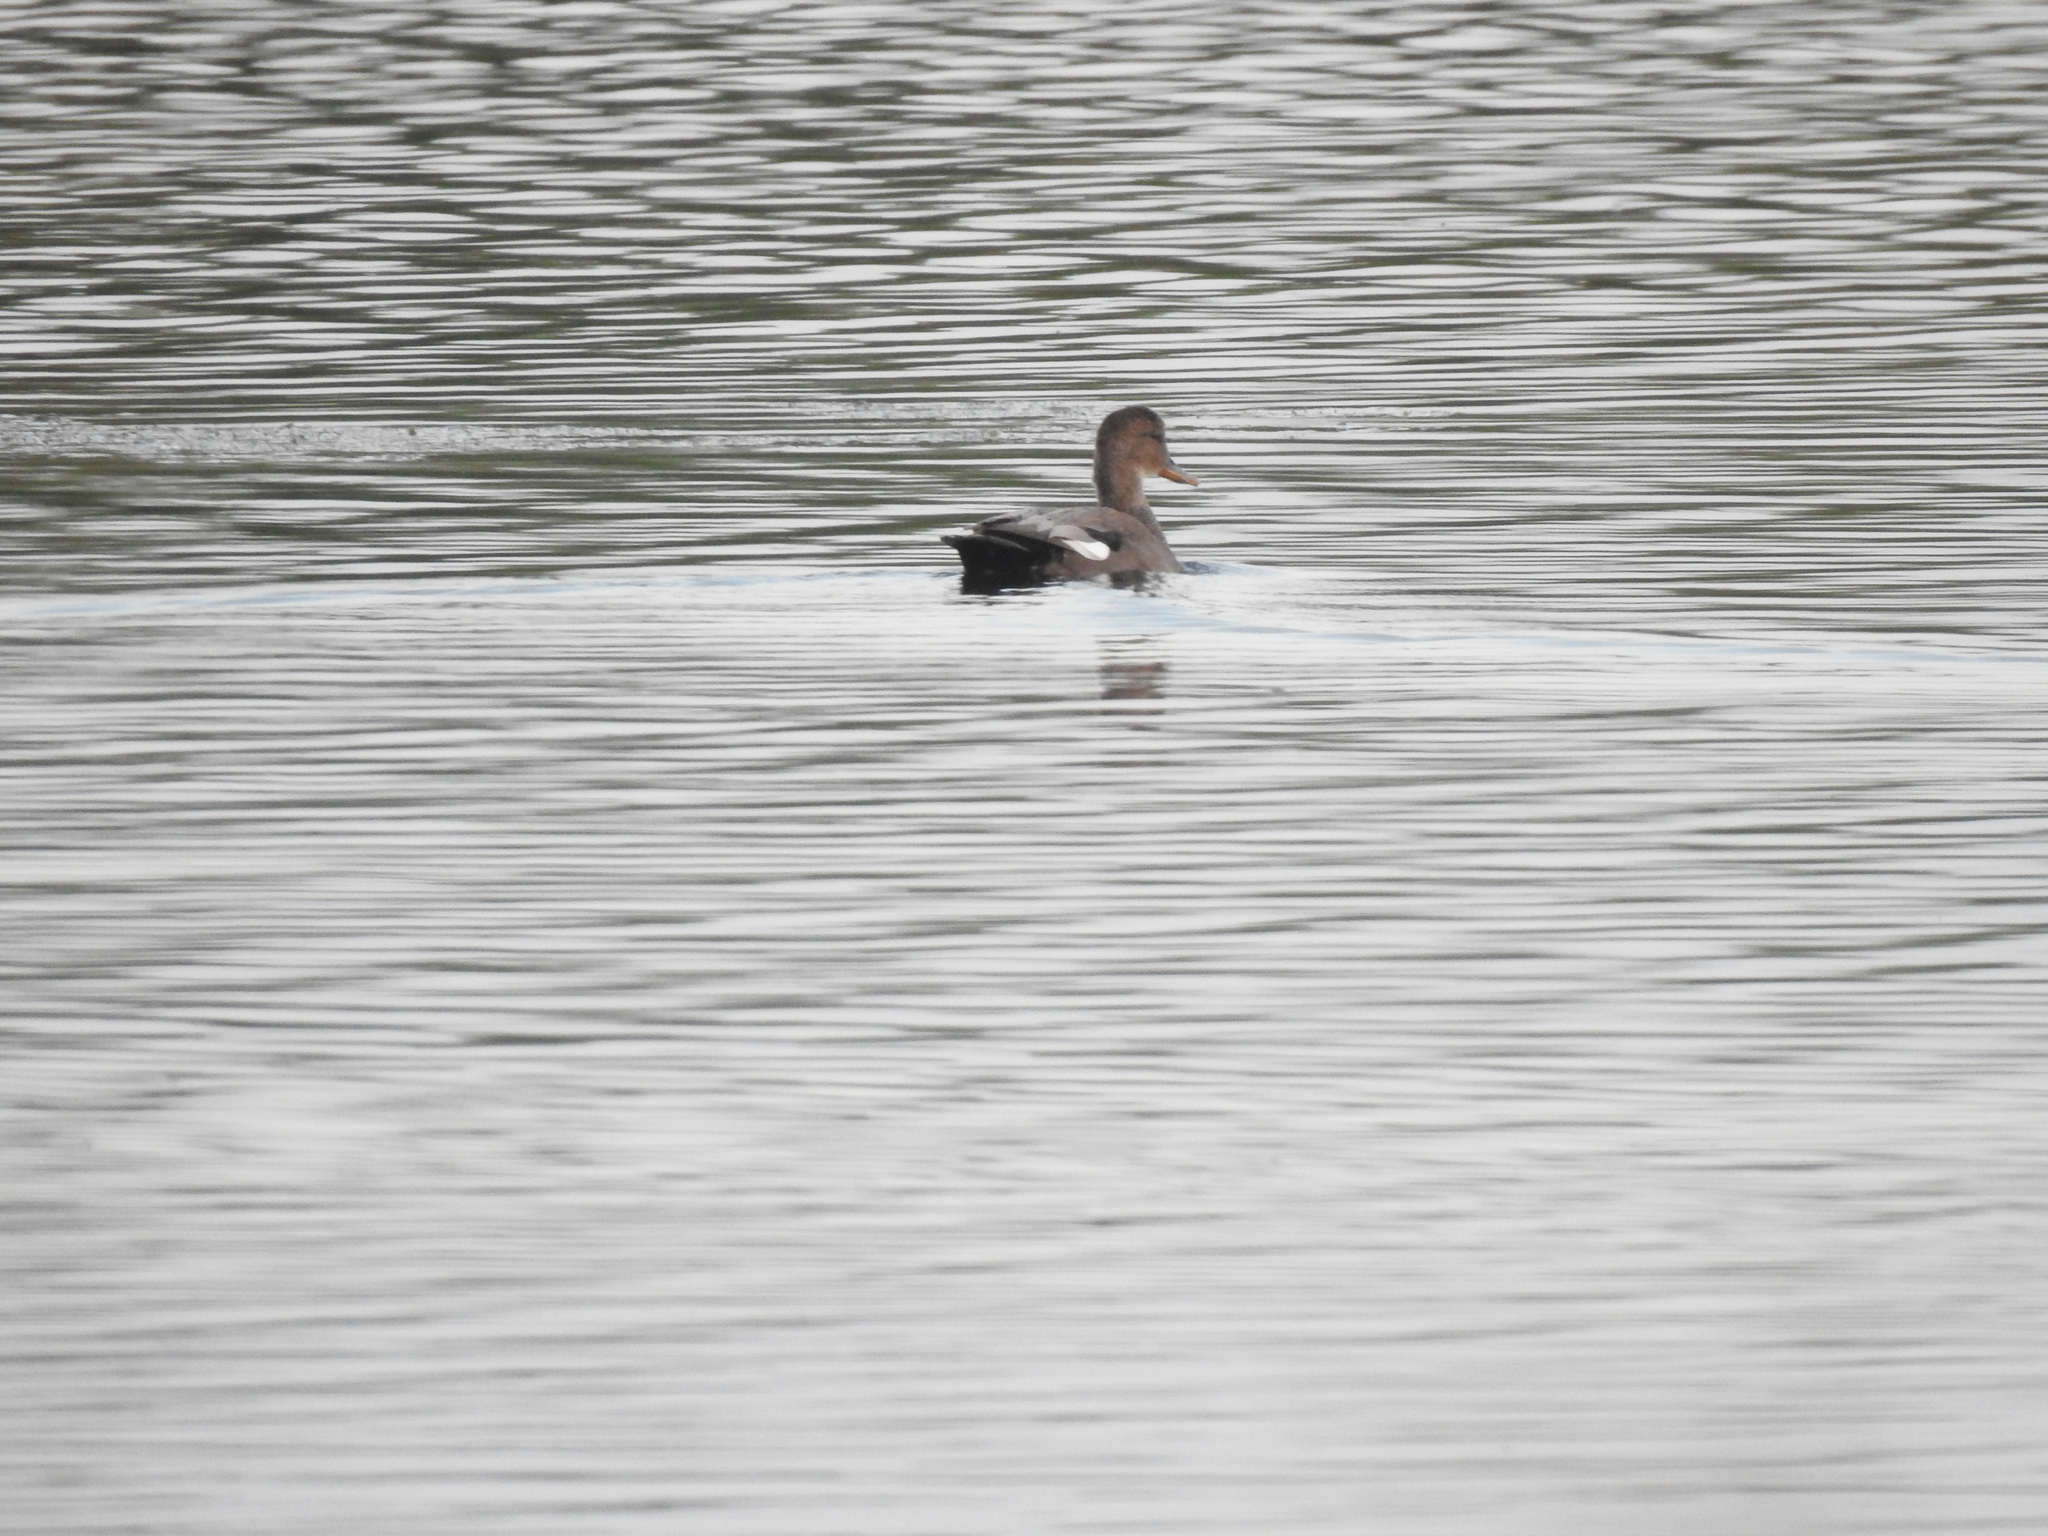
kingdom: Animalia
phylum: Chordata
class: Aves
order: Anseriformes
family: Anatidae
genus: Mareca
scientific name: Mareca strepera
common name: Gadwall
